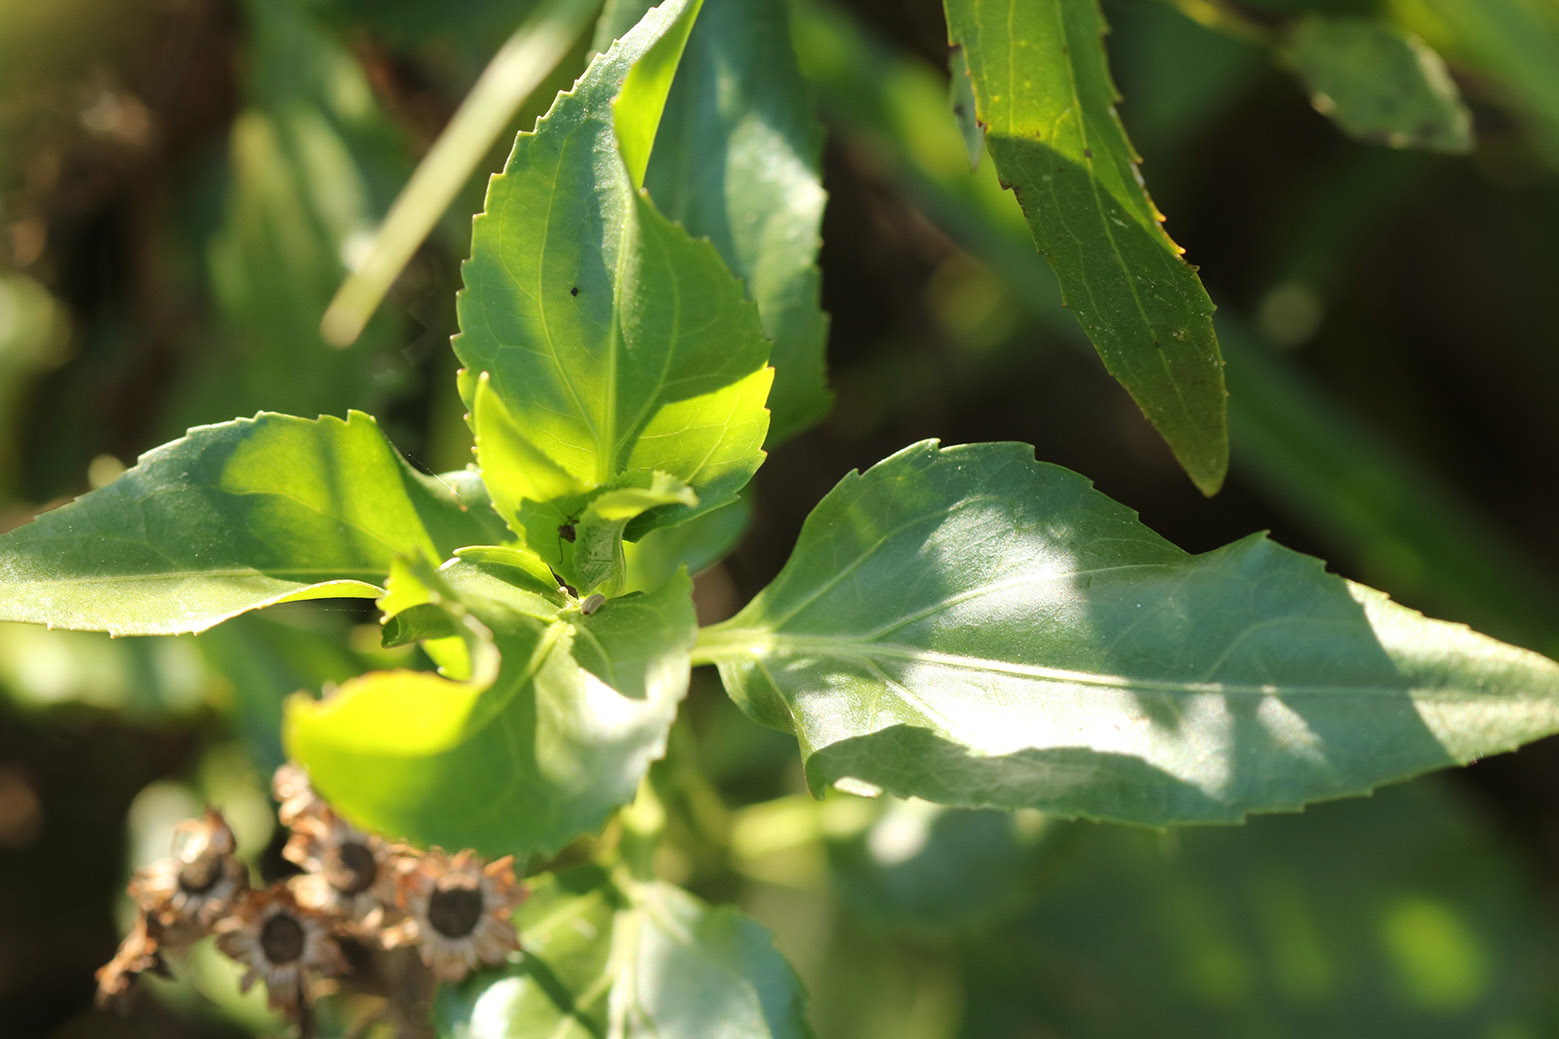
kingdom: Plantae
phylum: Tracheophyta
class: Magnoliopsida
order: Asterales
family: Asteraceae
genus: Gymnocoronis
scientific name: Gymnocoronis spilanthoides
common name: Senegal teaplant
